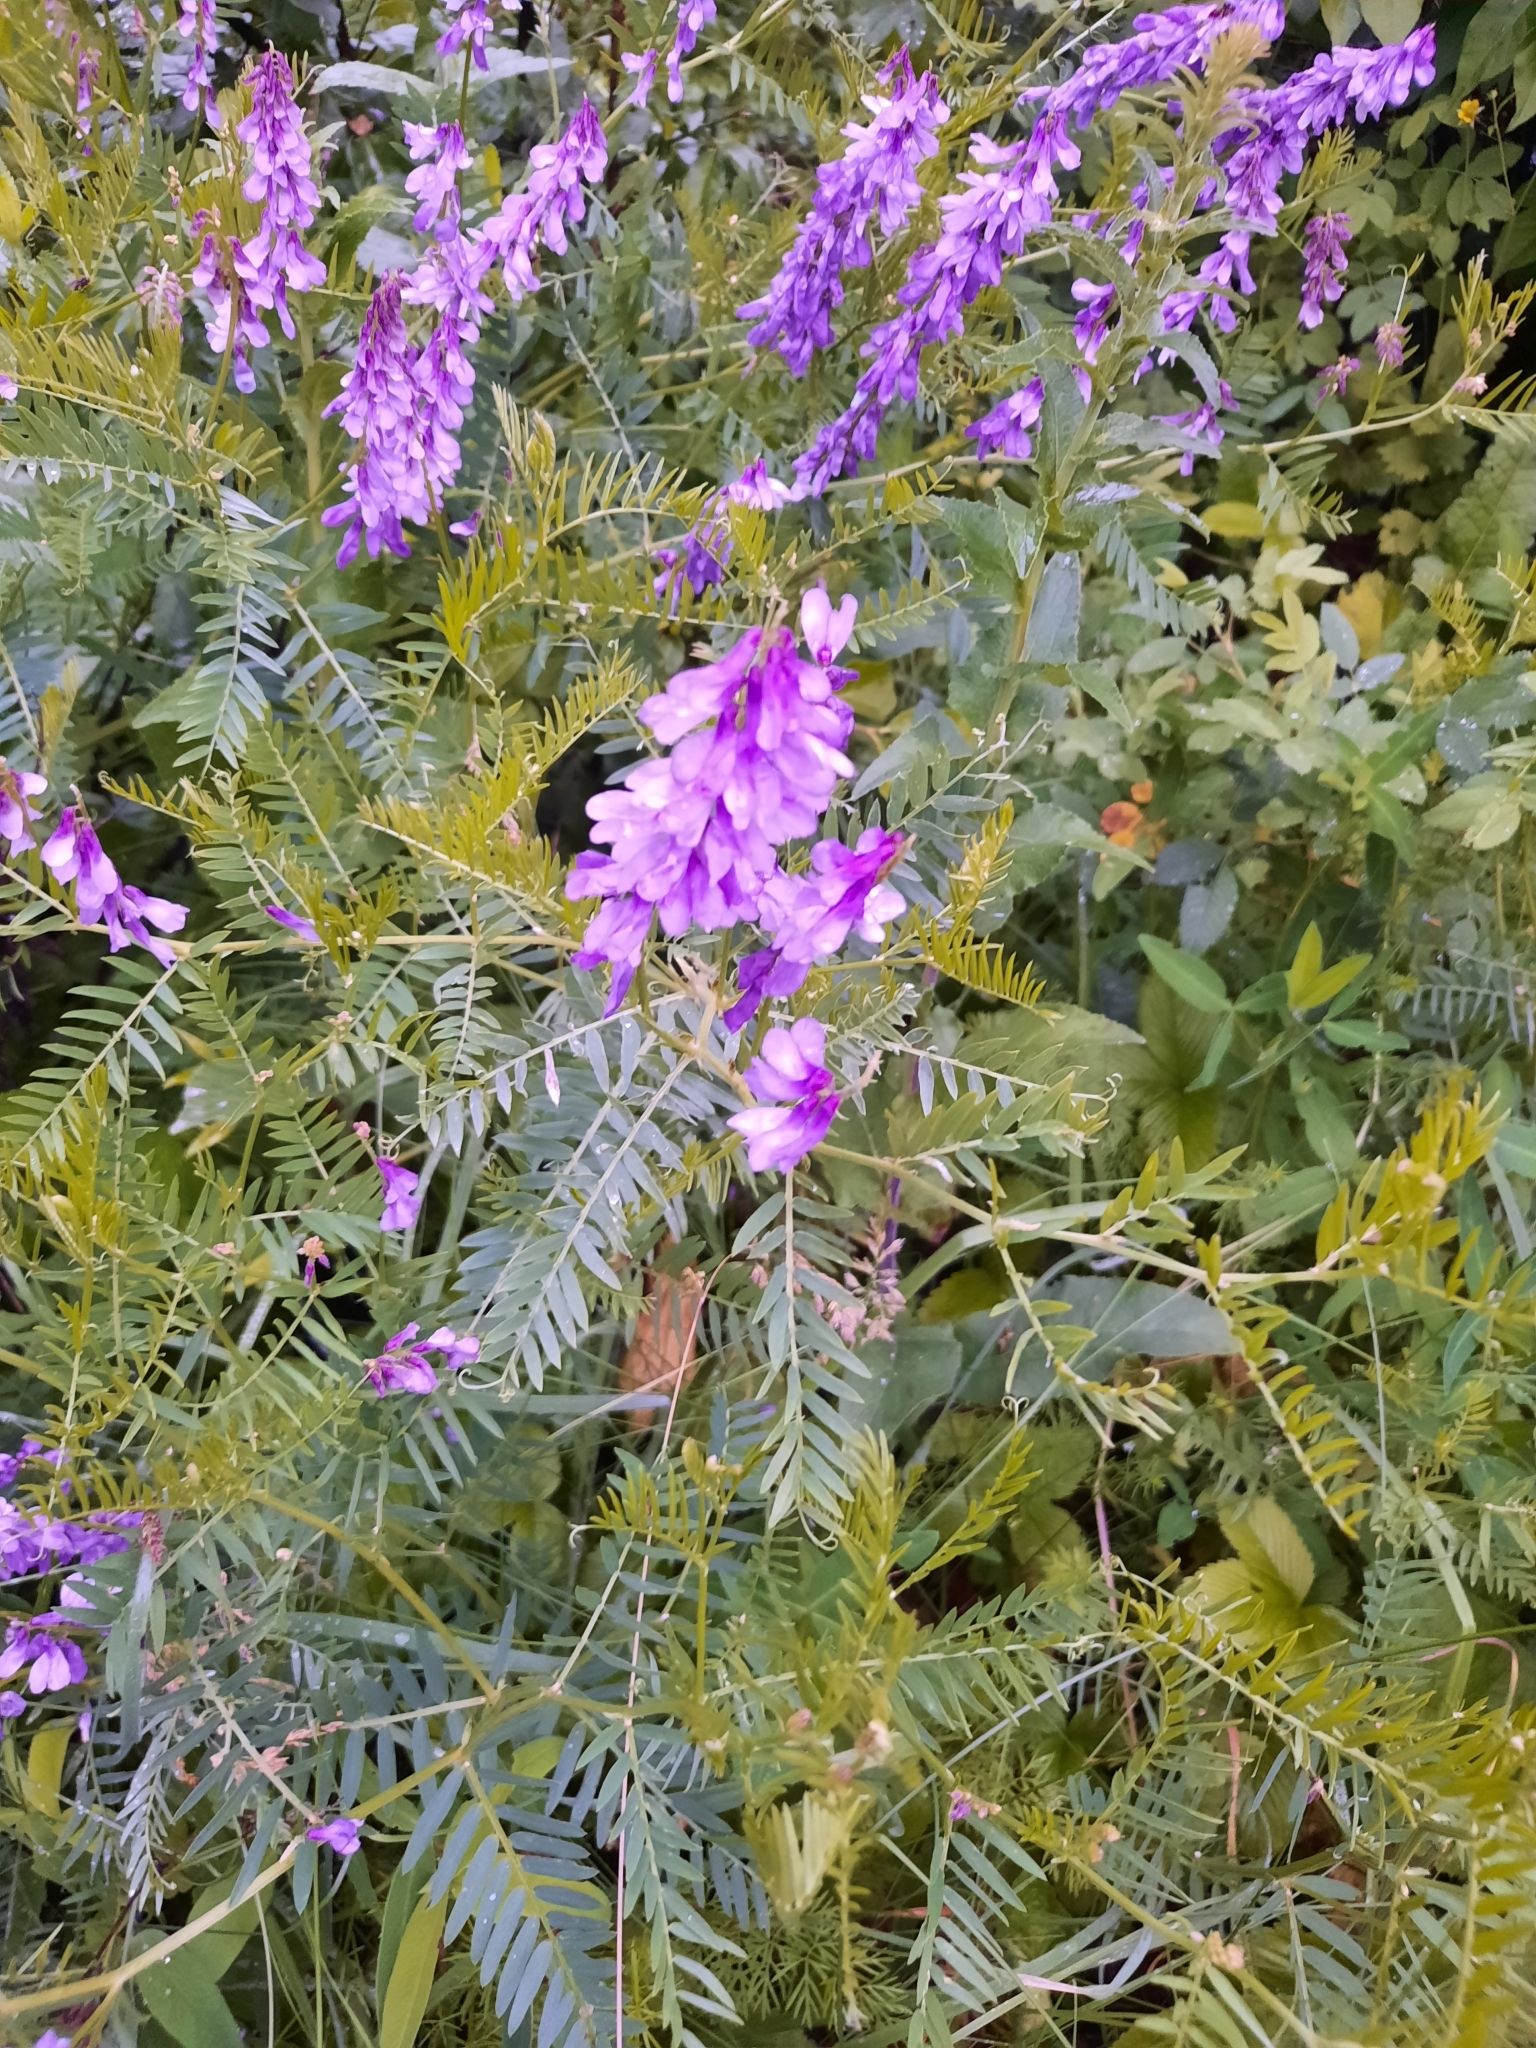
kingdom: Plantae
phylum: Tracheophyta
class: Magnoliopsida
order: Fabales
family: Fabaceae
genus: Vicia
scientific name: Vicia tenuifolia
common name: Fine-leaved vetch
